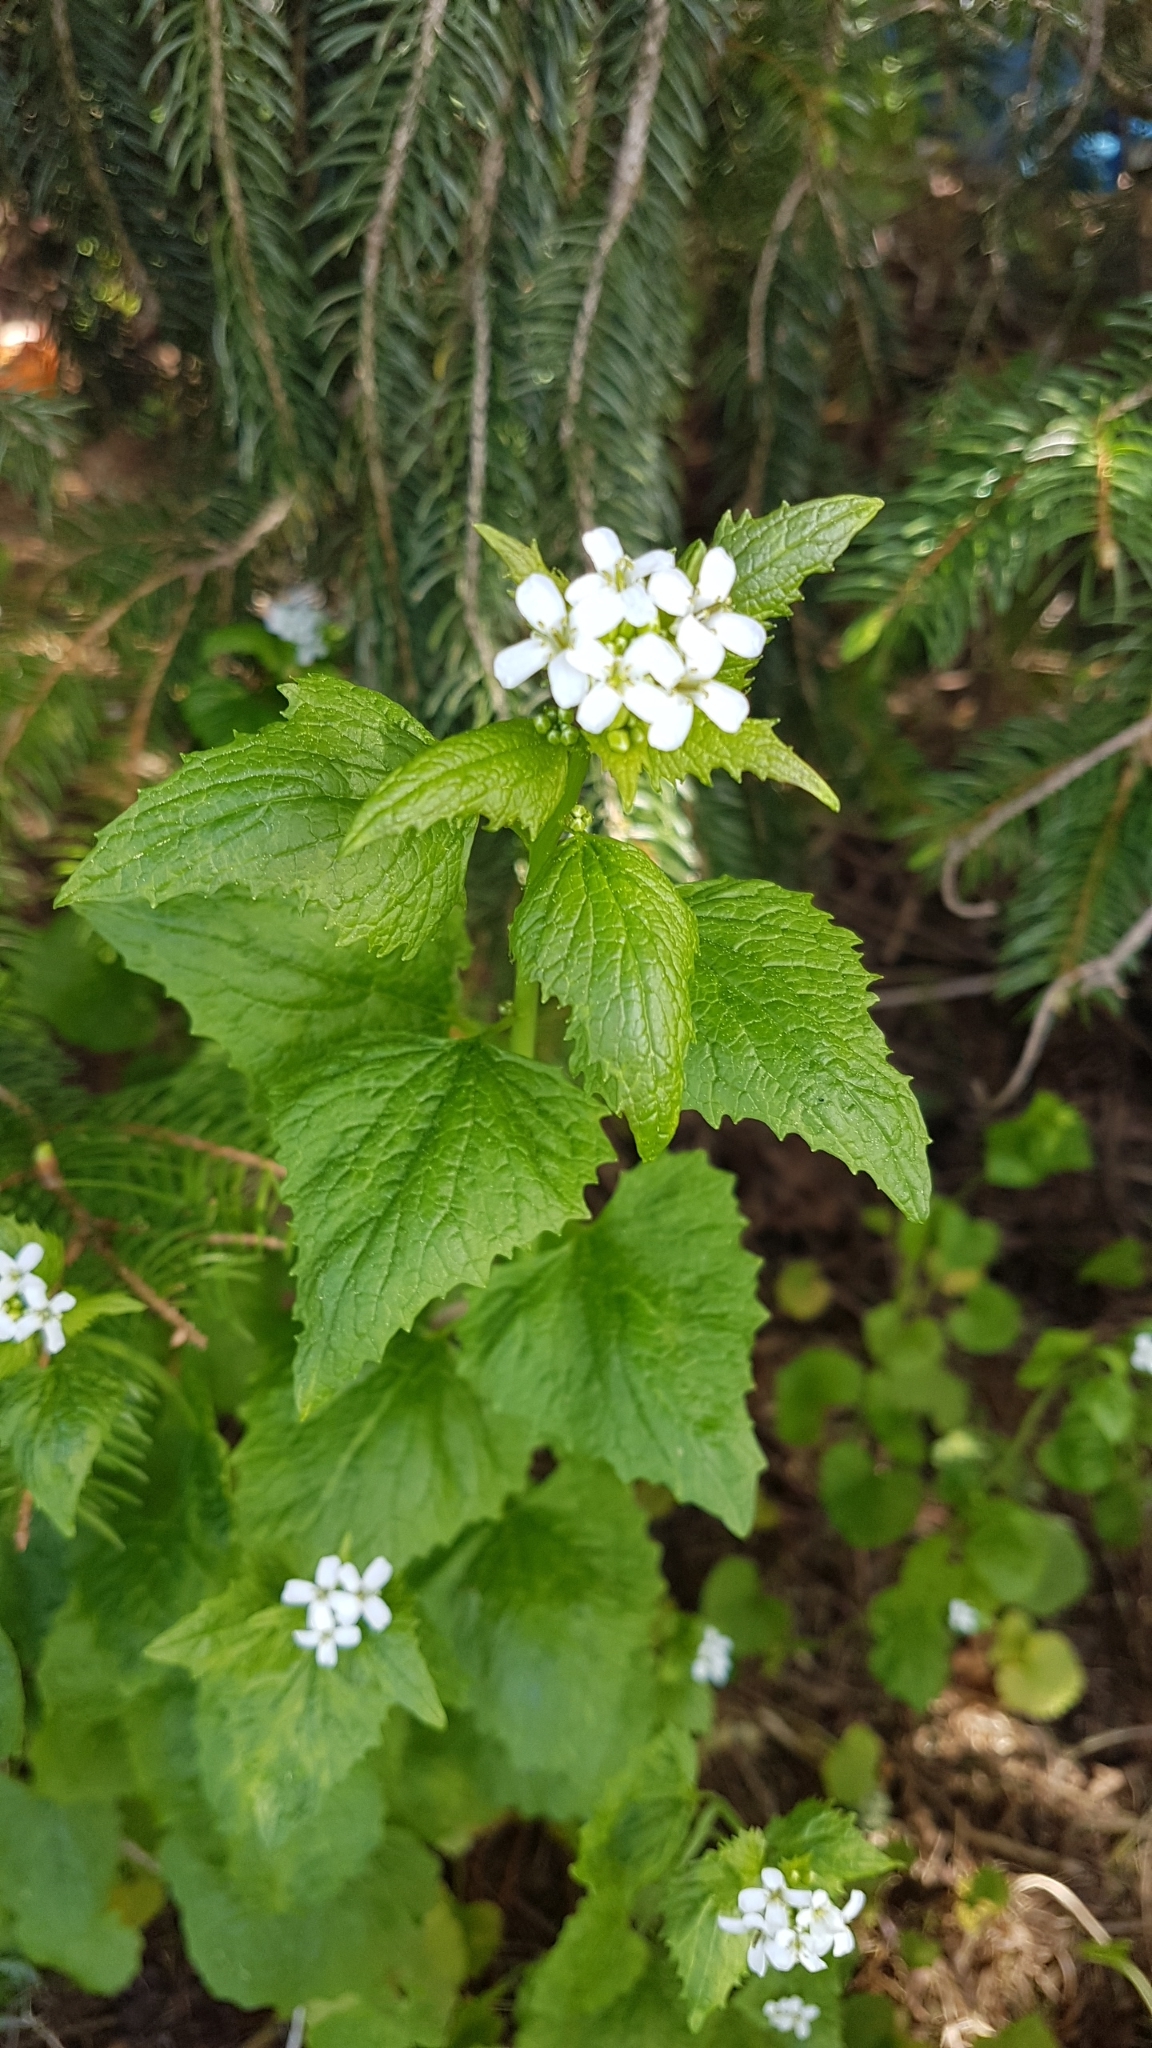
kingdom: Plantae
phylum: Tracheophyta
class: Magnoliopsida
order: Brassicales
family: Brassicaceae
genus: Alliaria
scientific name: Alliaria petiolata
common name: Garlic mustard
